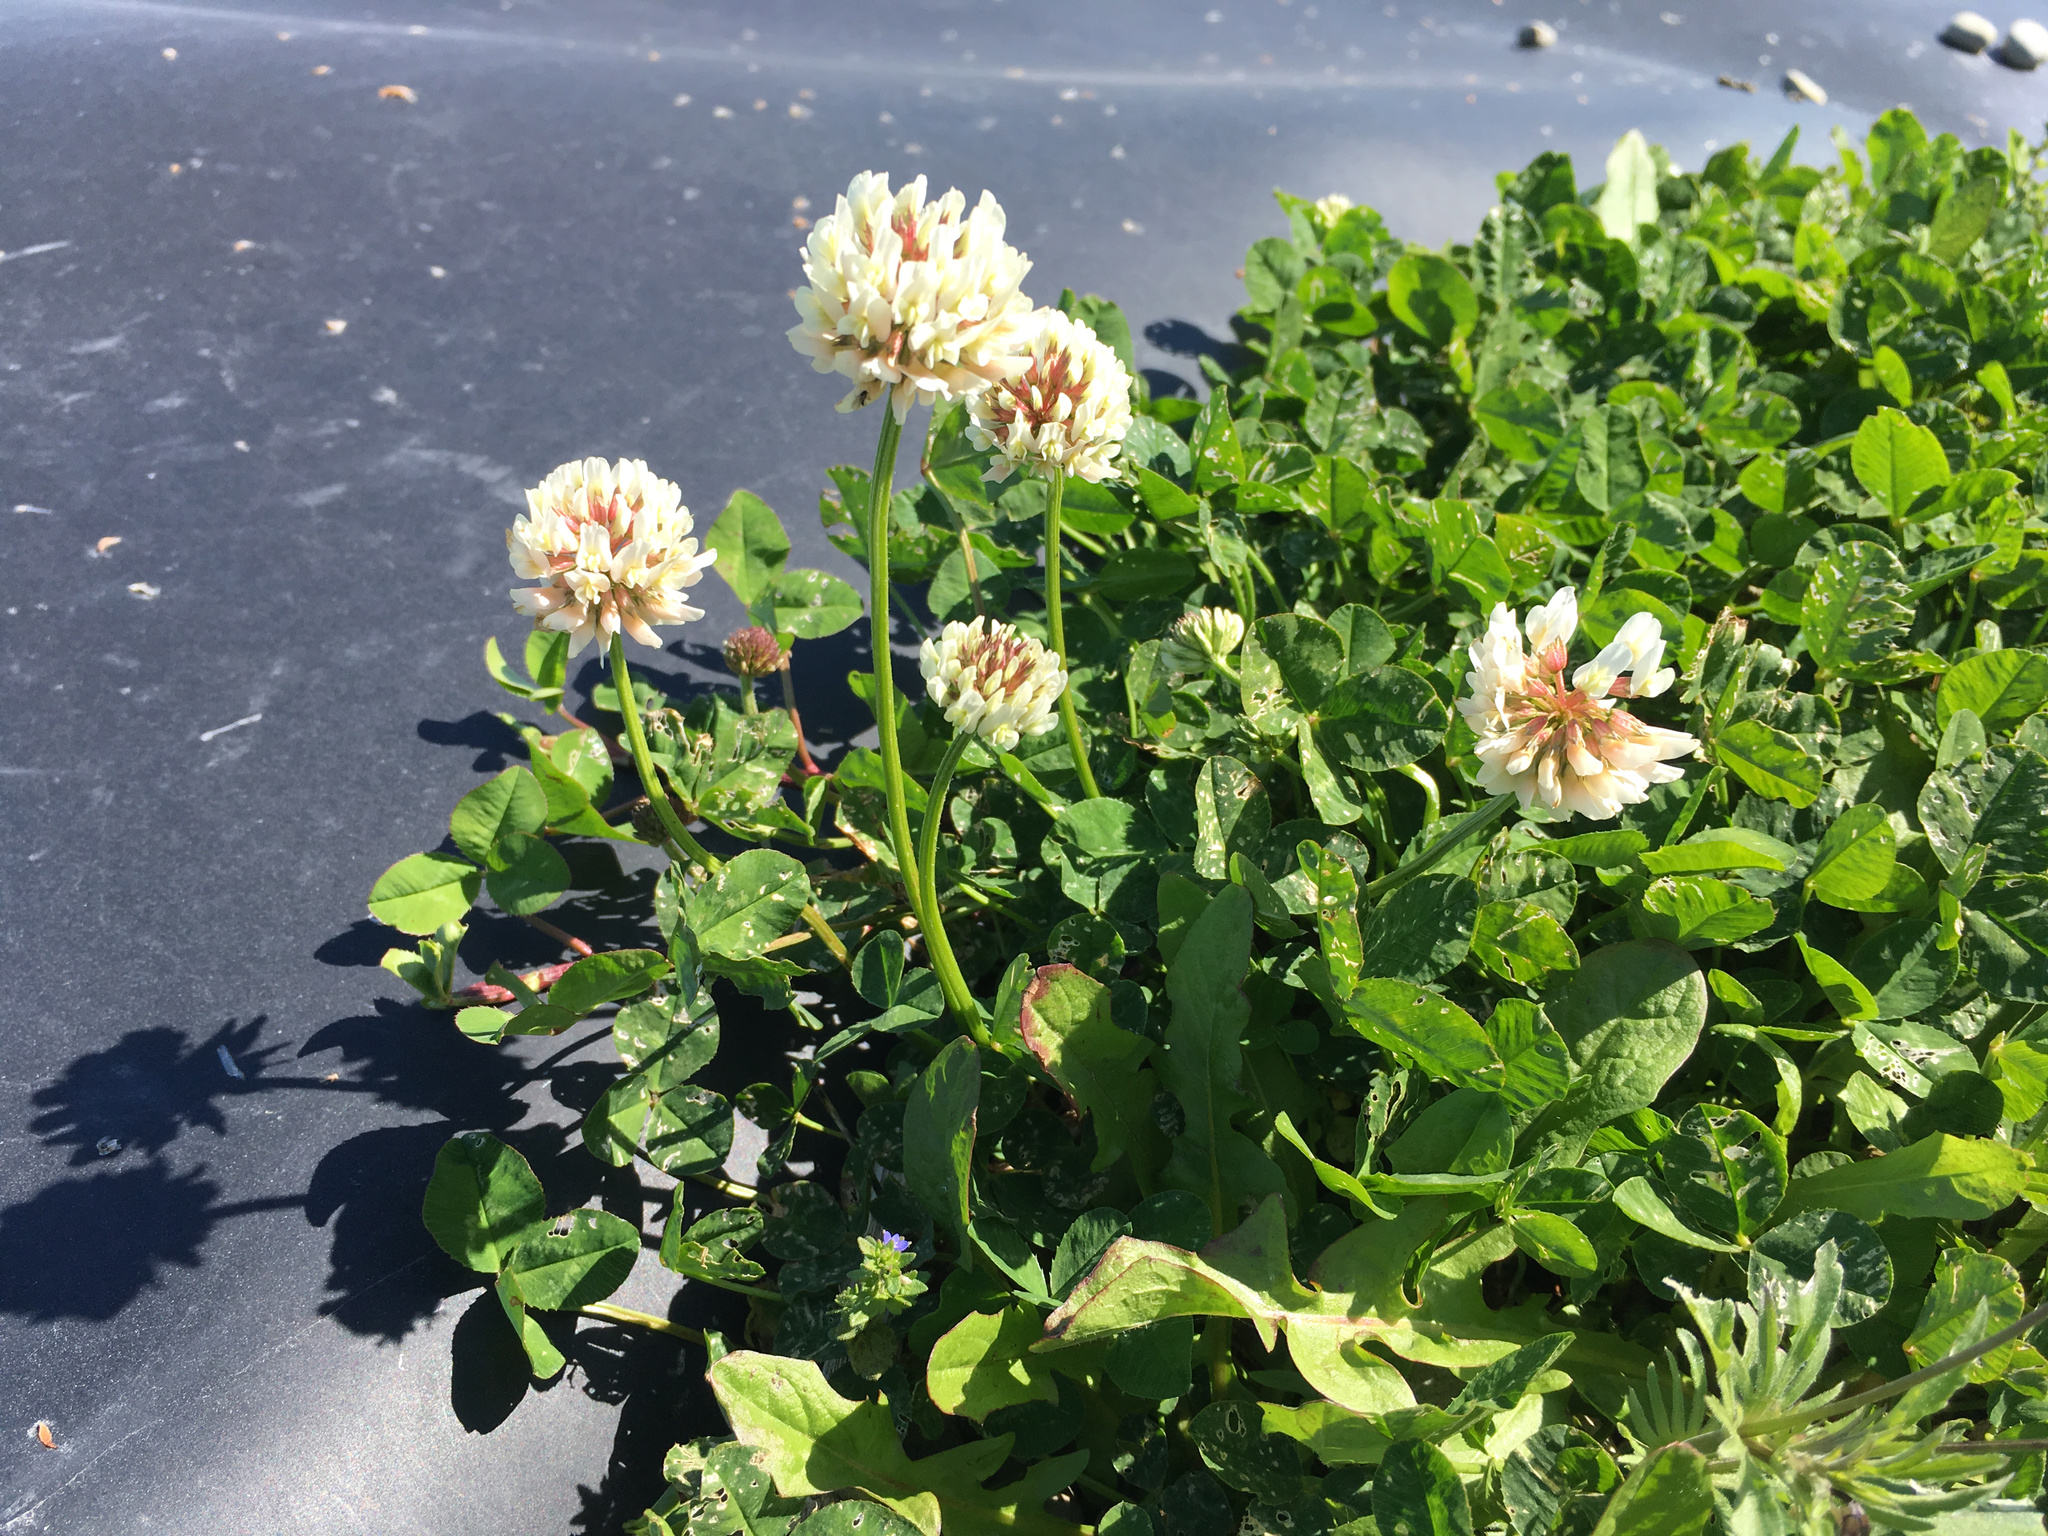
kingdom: Plantae
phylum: Tracheophyta
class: Magnoliopsida
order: Fabales
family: Fabaceae
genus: Trifolium
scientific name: Trifolium repens
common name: White clover
